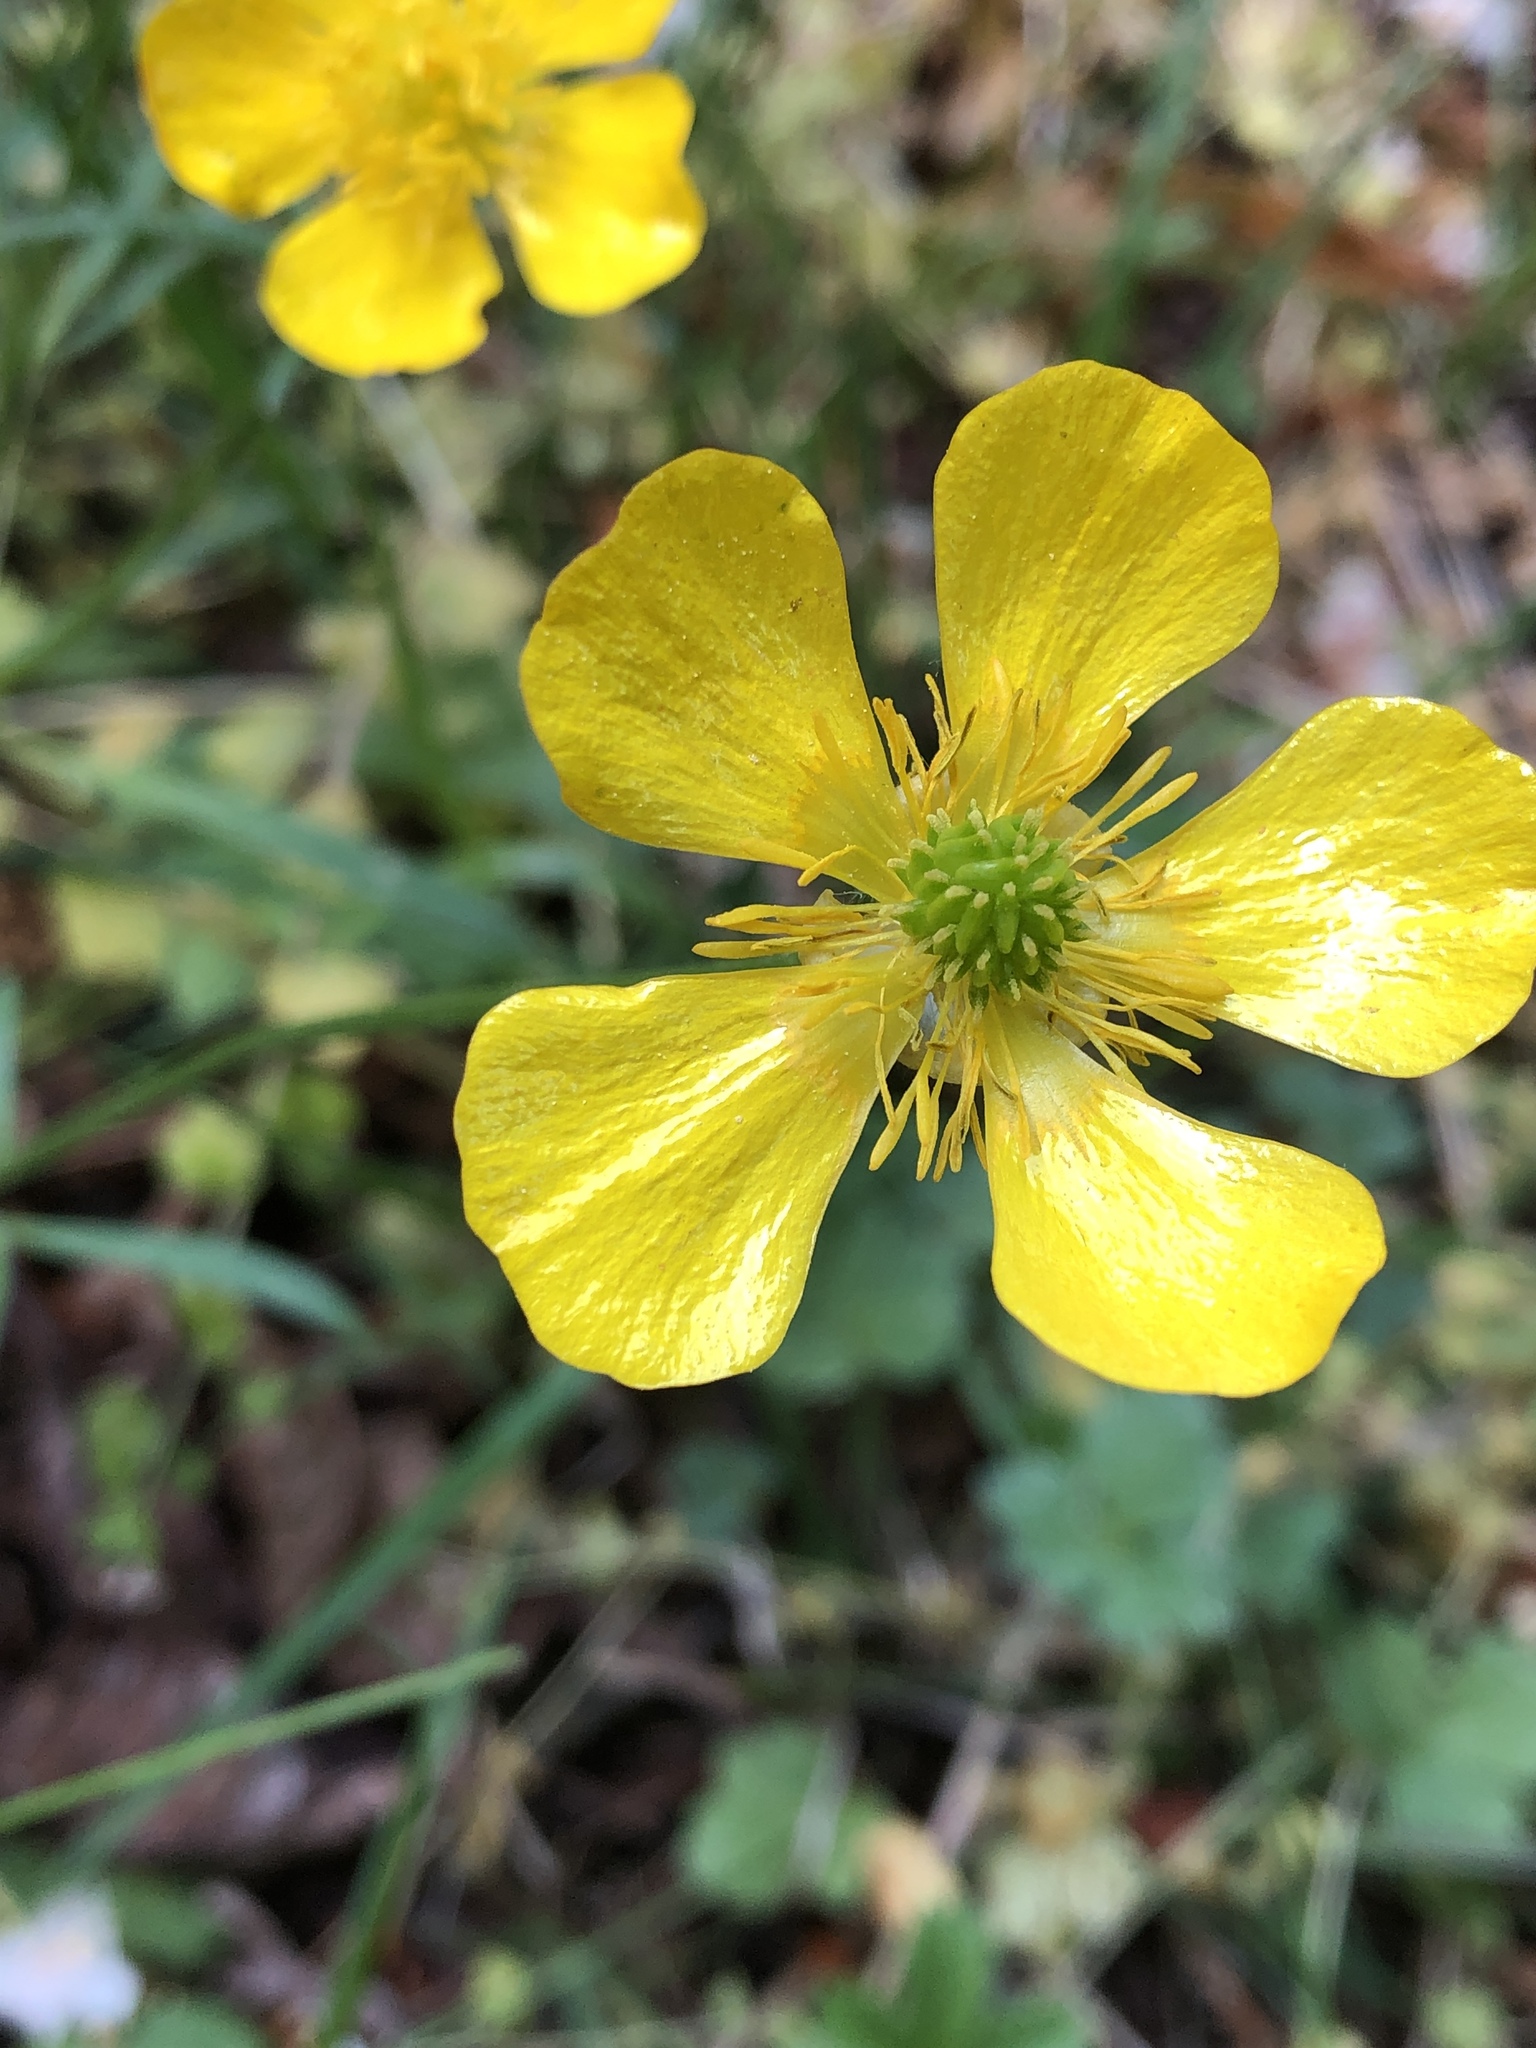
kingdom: Plantae
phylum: Tracheophyta
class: Magnoliopsida
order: Ranunculales
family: Ranunculaceae
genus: Ranunculus
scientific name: Ranunculus bulbosus
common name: Bulbous buttercup
